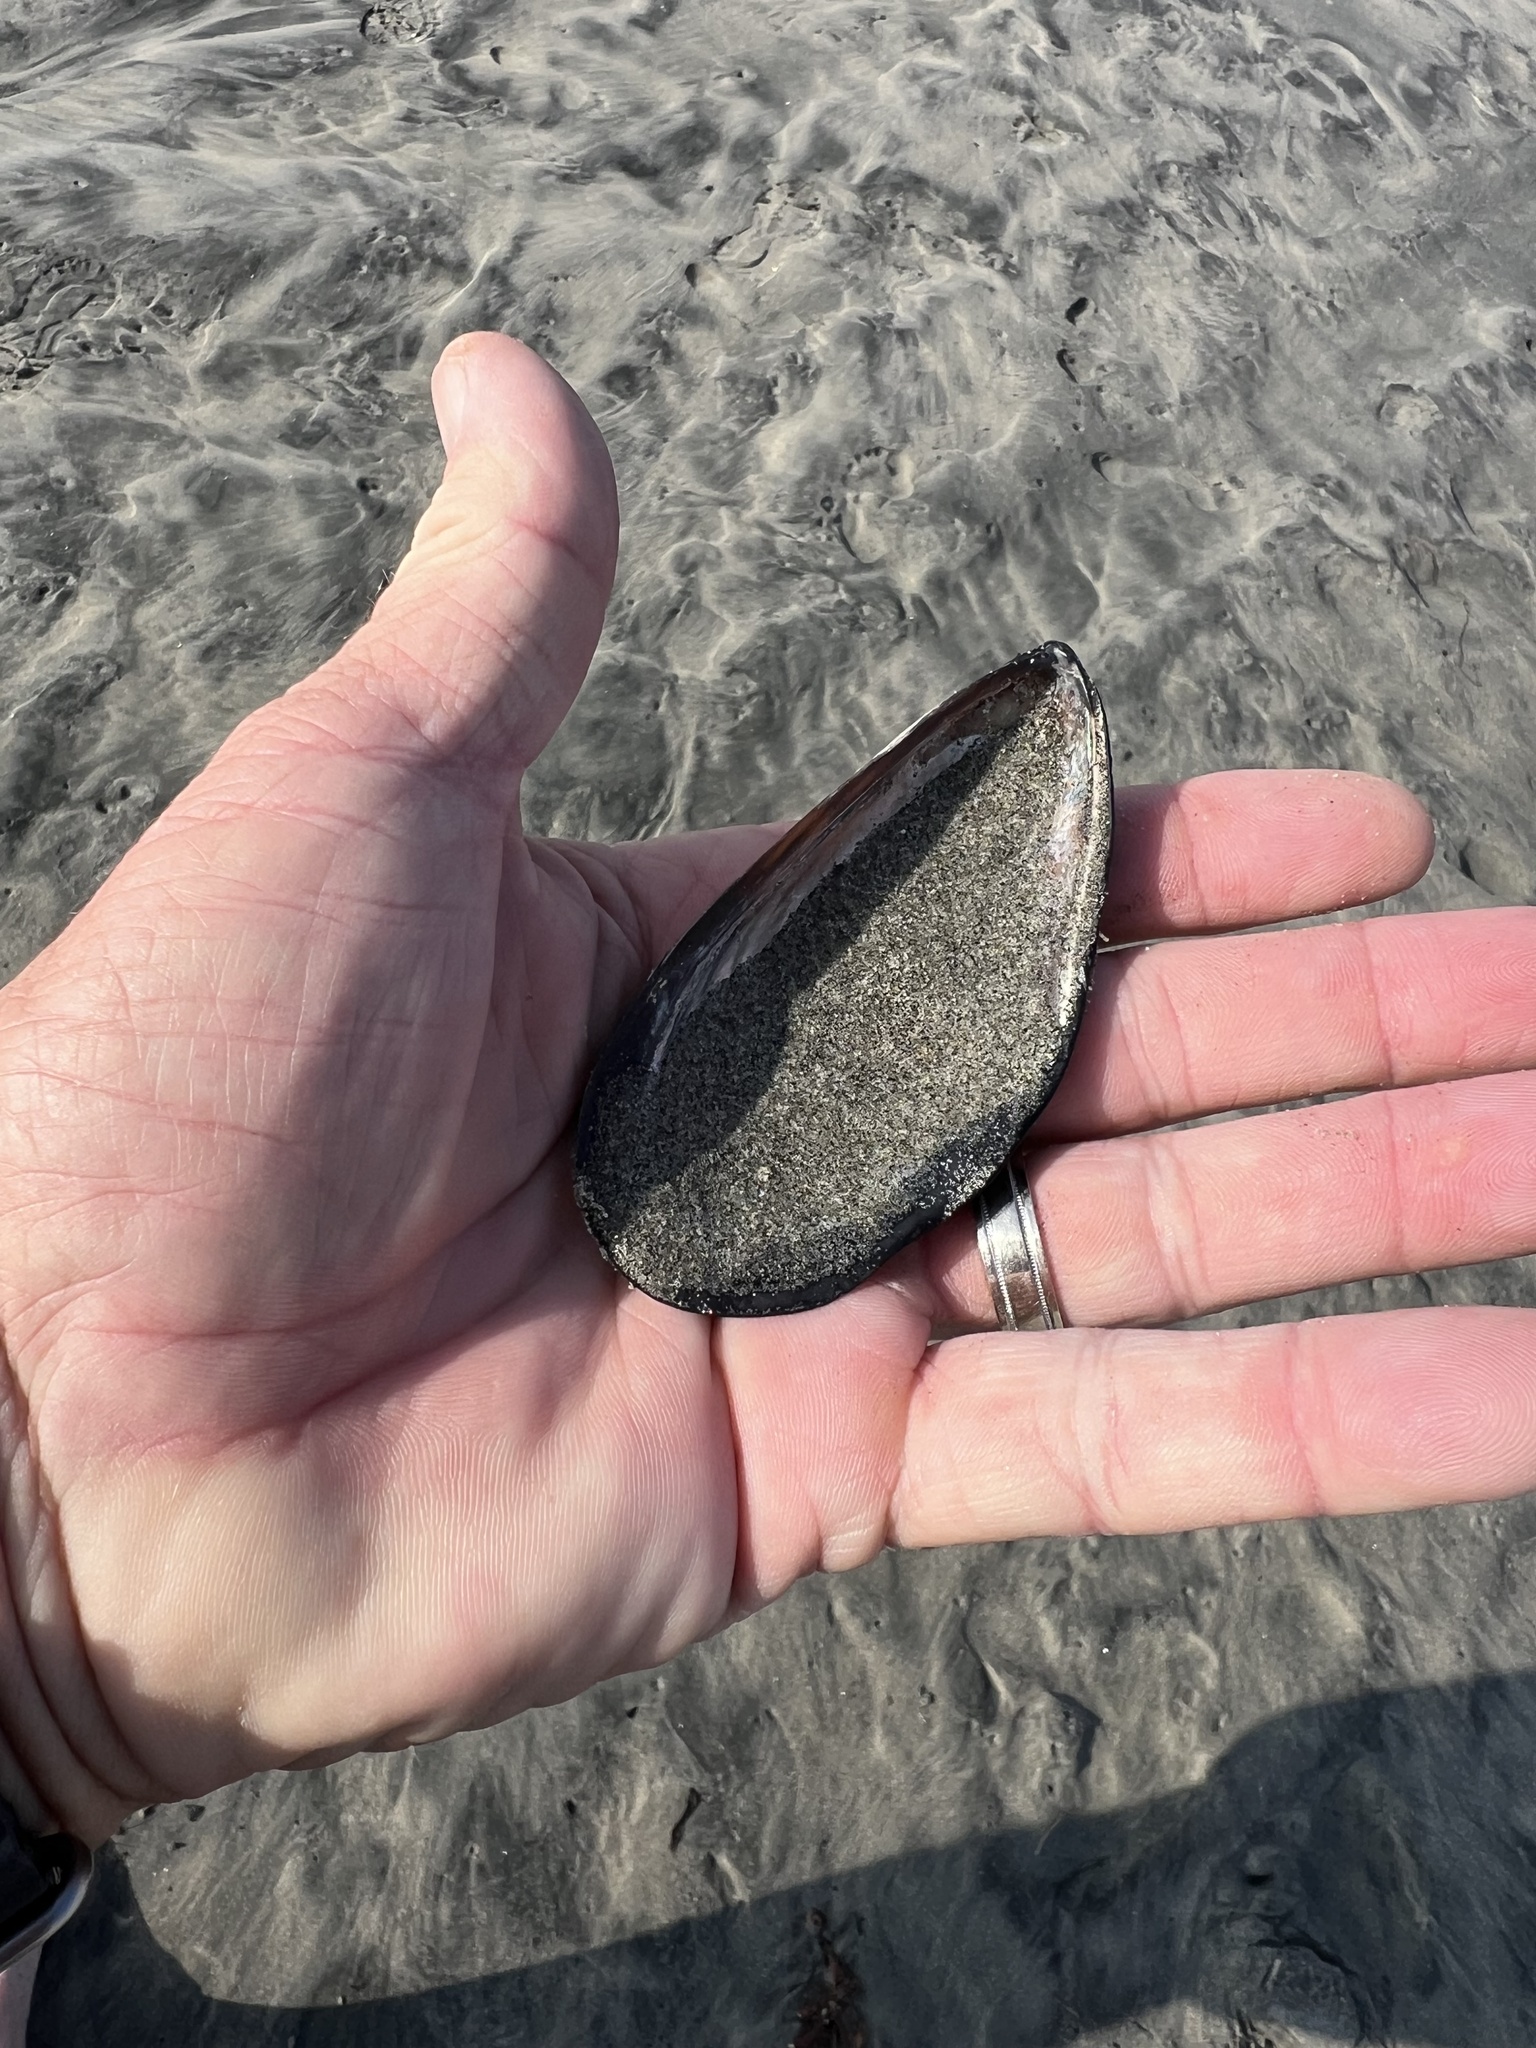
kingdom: Animalia
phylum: Mollusca
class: Bivalvia
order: Mytilida
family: Mytilidae
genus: Mytilus
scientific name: Mytilus californianus
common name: California mussel
